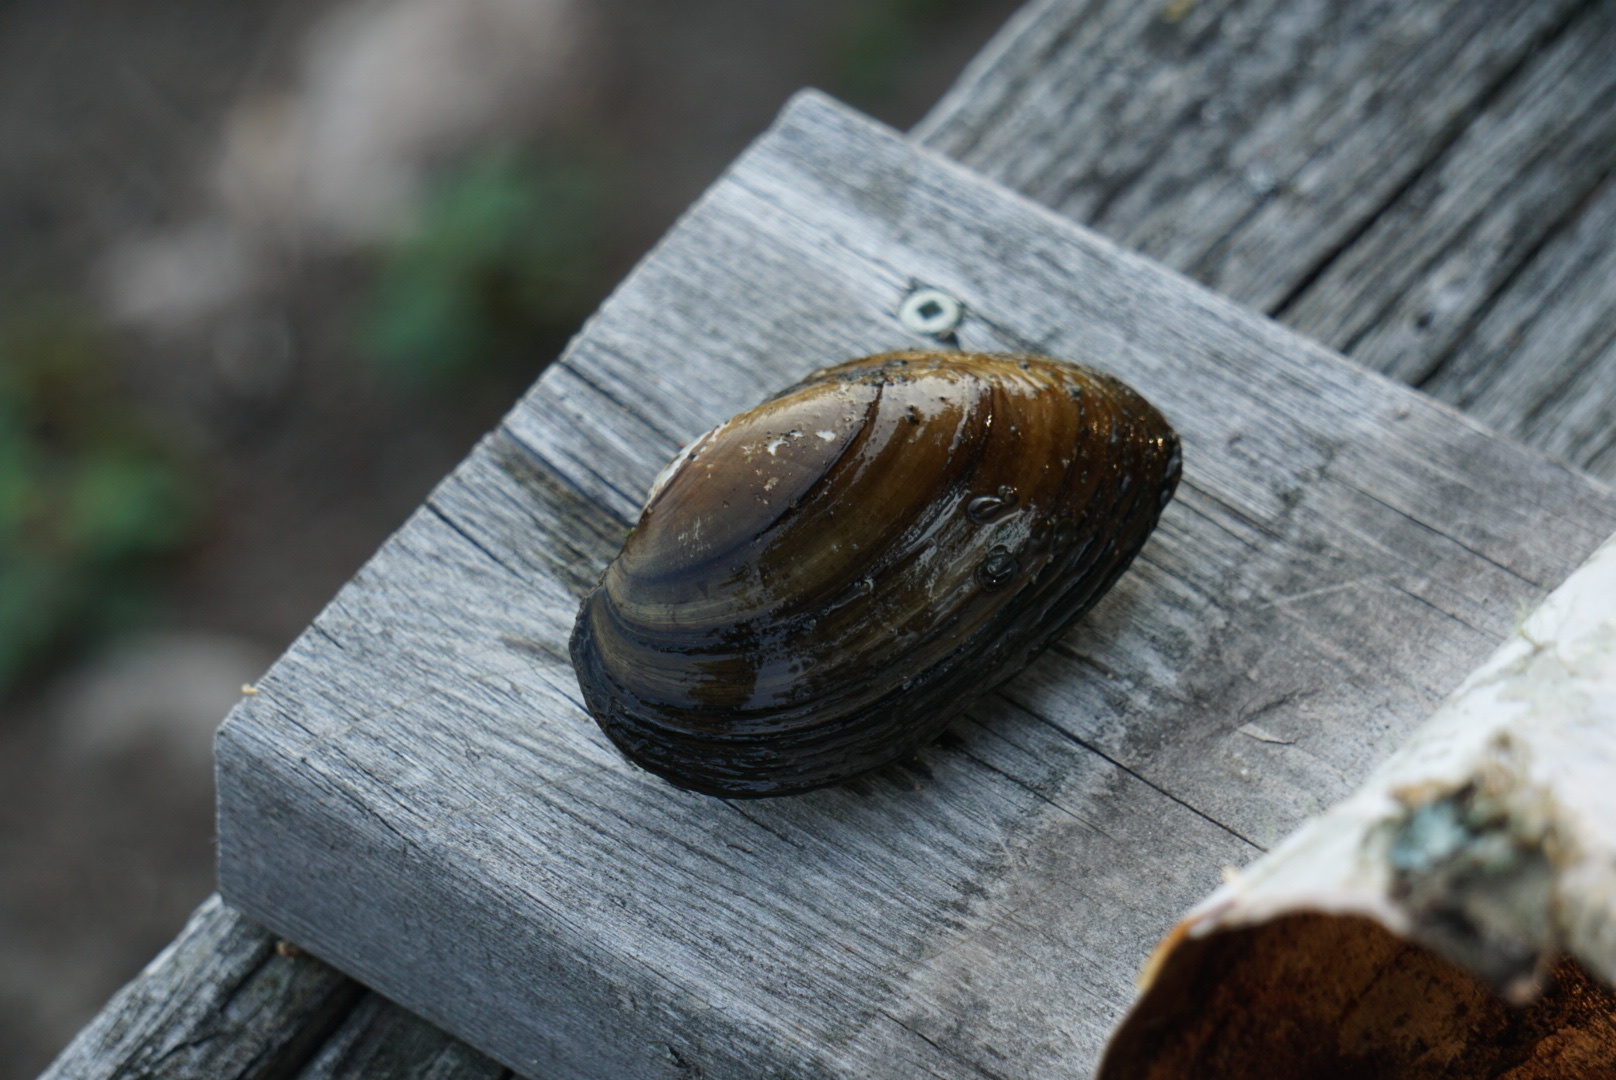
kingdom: Animalia
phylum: Mollusca
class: Bivalvia
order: Unionida
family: Unionidae
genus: Pyganodon
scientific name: Pyganodon grandis
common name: Giant floater
